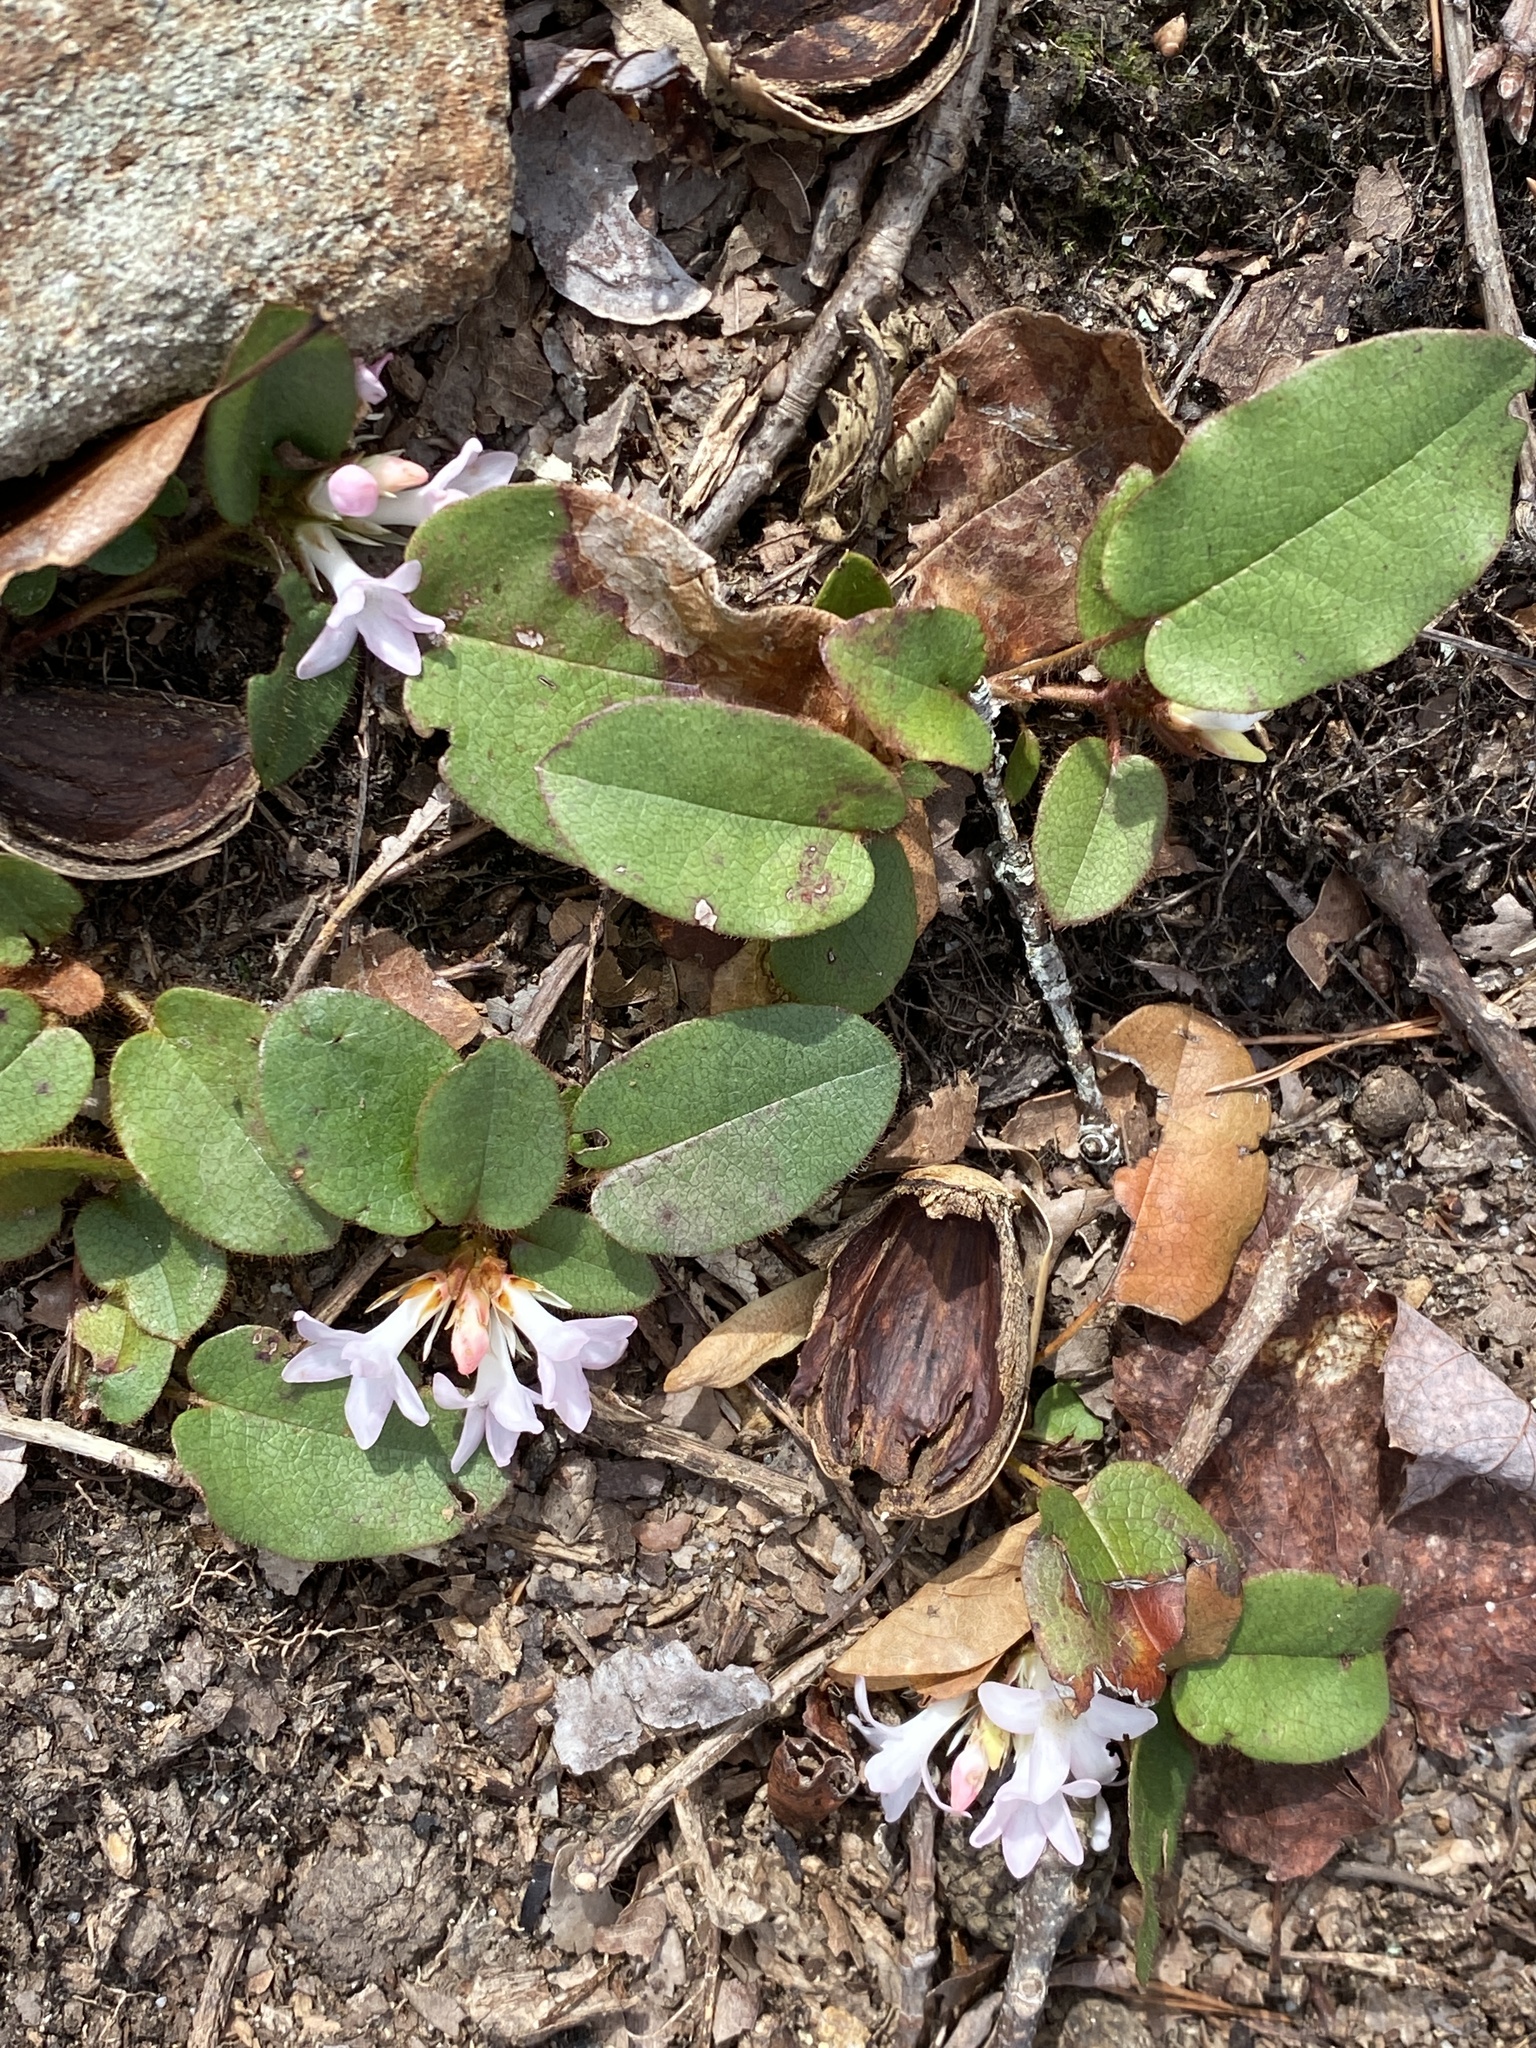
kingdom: Plantae
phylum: Tracheophyta
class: Magnoliopsida
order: Ericales
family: Ericaceae
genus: Epigaea
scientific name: Epigaea repens
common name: Gravelroot
